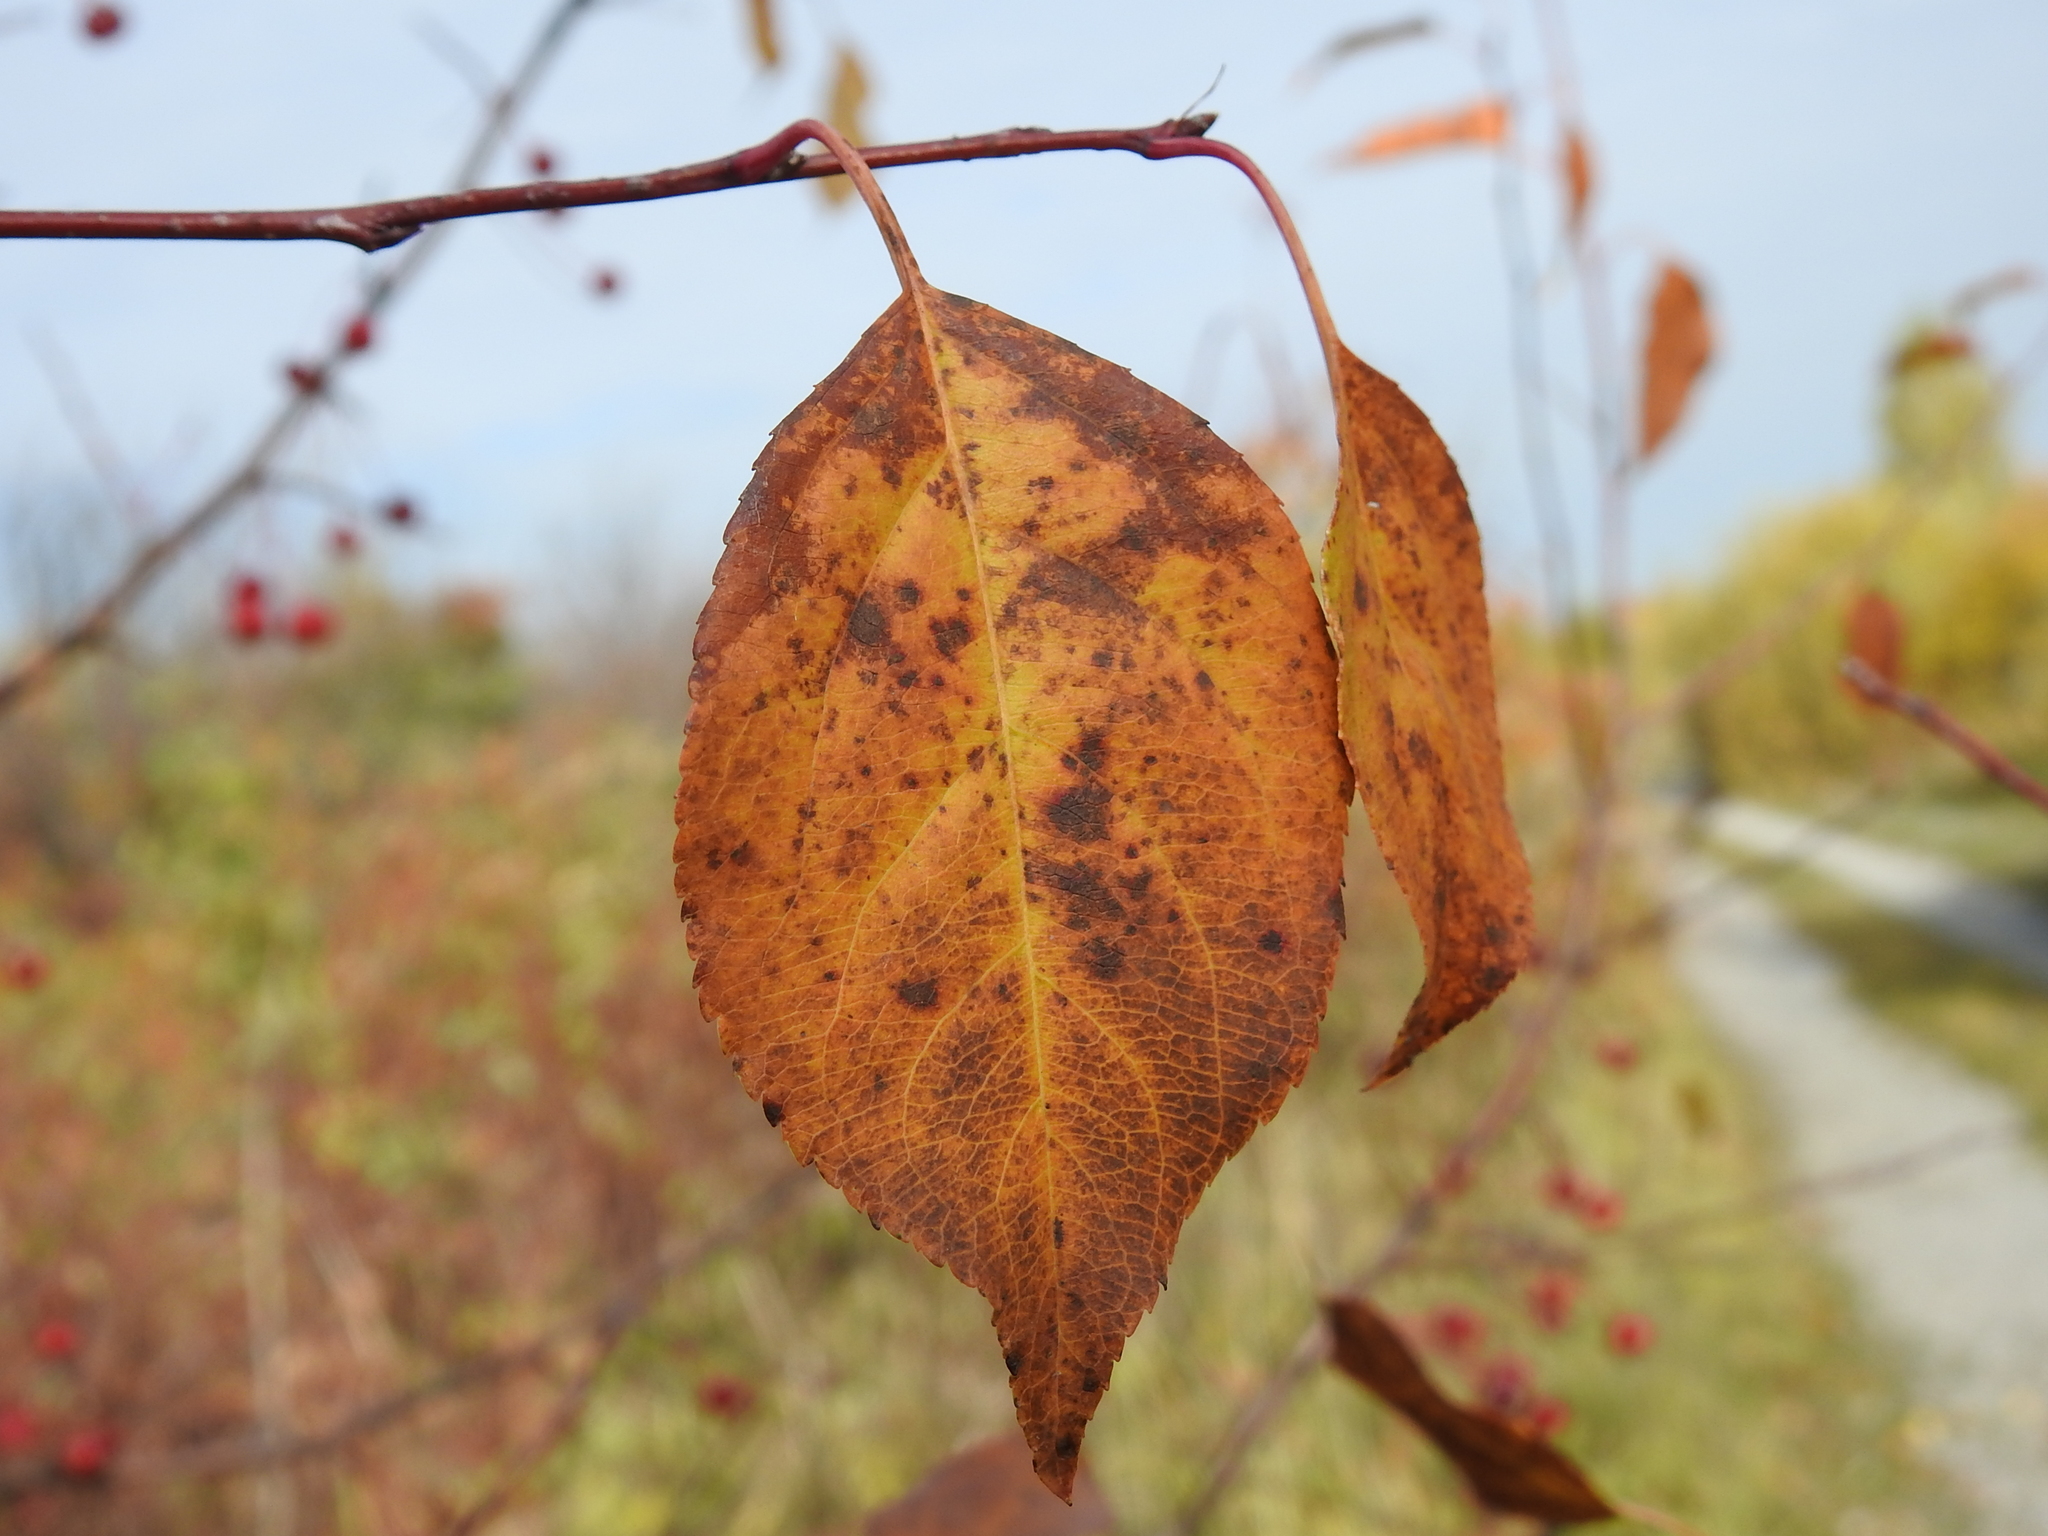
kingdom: Plantae
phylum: Tracheophyta
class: Magnoliopsida
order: Rosales
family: Rosaceae
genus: Malus
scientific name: Malus baccata
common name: Siberian crab
